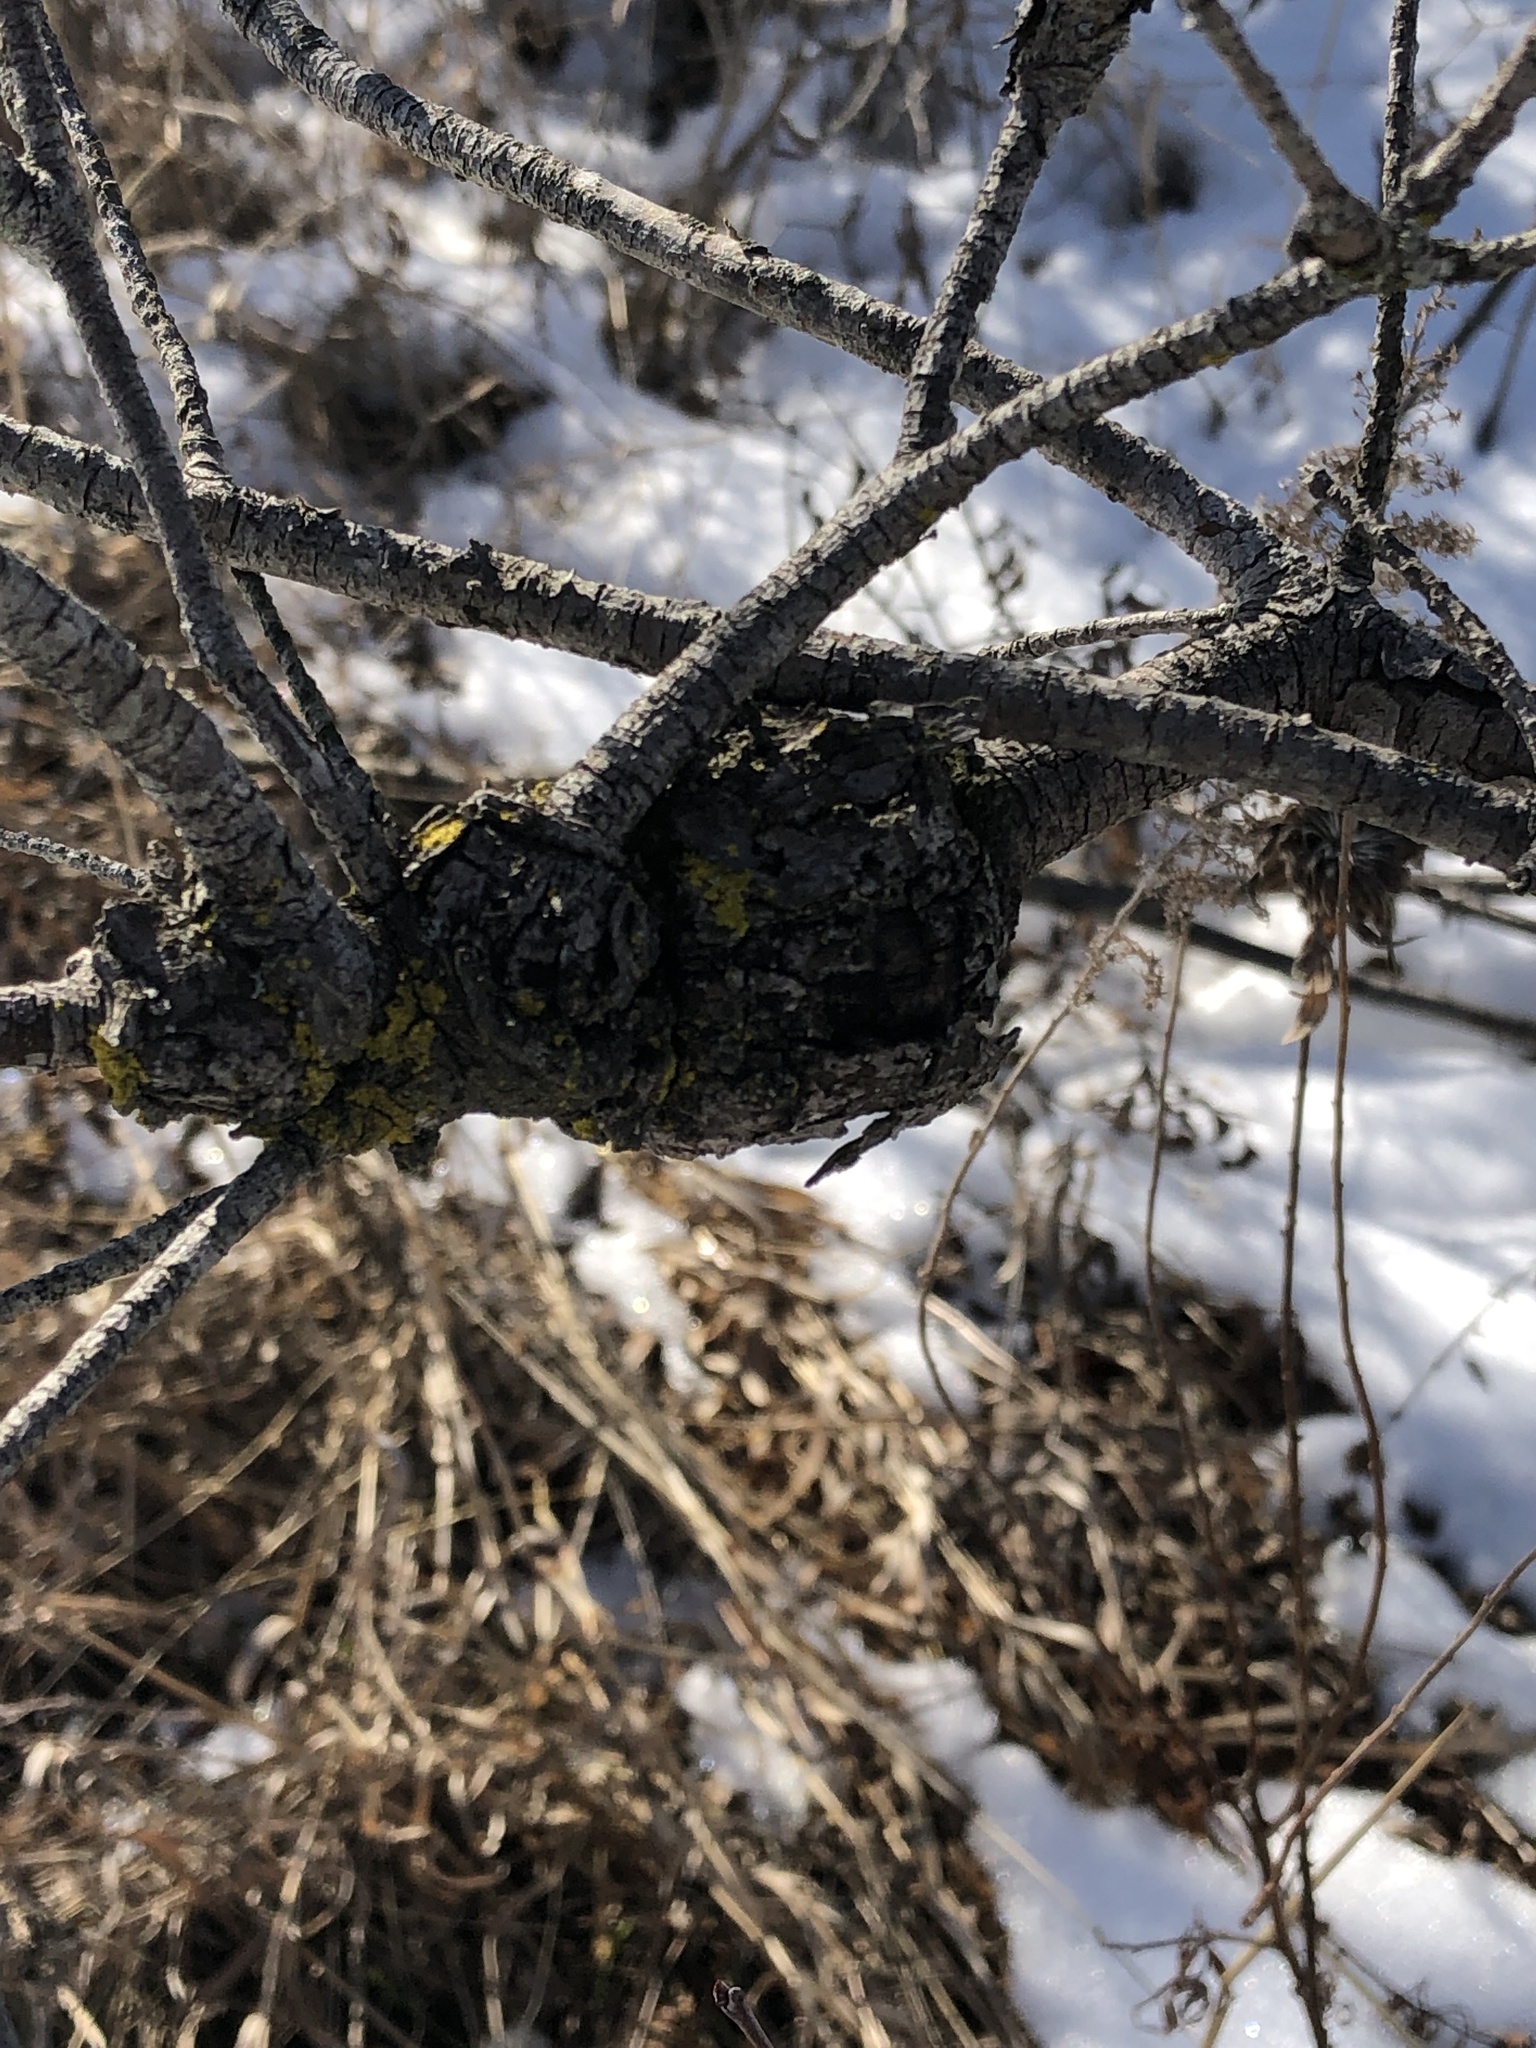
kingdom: Fungi
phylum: Ascomycota
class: Dothideomycetes
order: Venturiales
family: Venturiaceae
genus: Apiosporina
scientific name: Apiosporina morbosa
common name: Black knot
